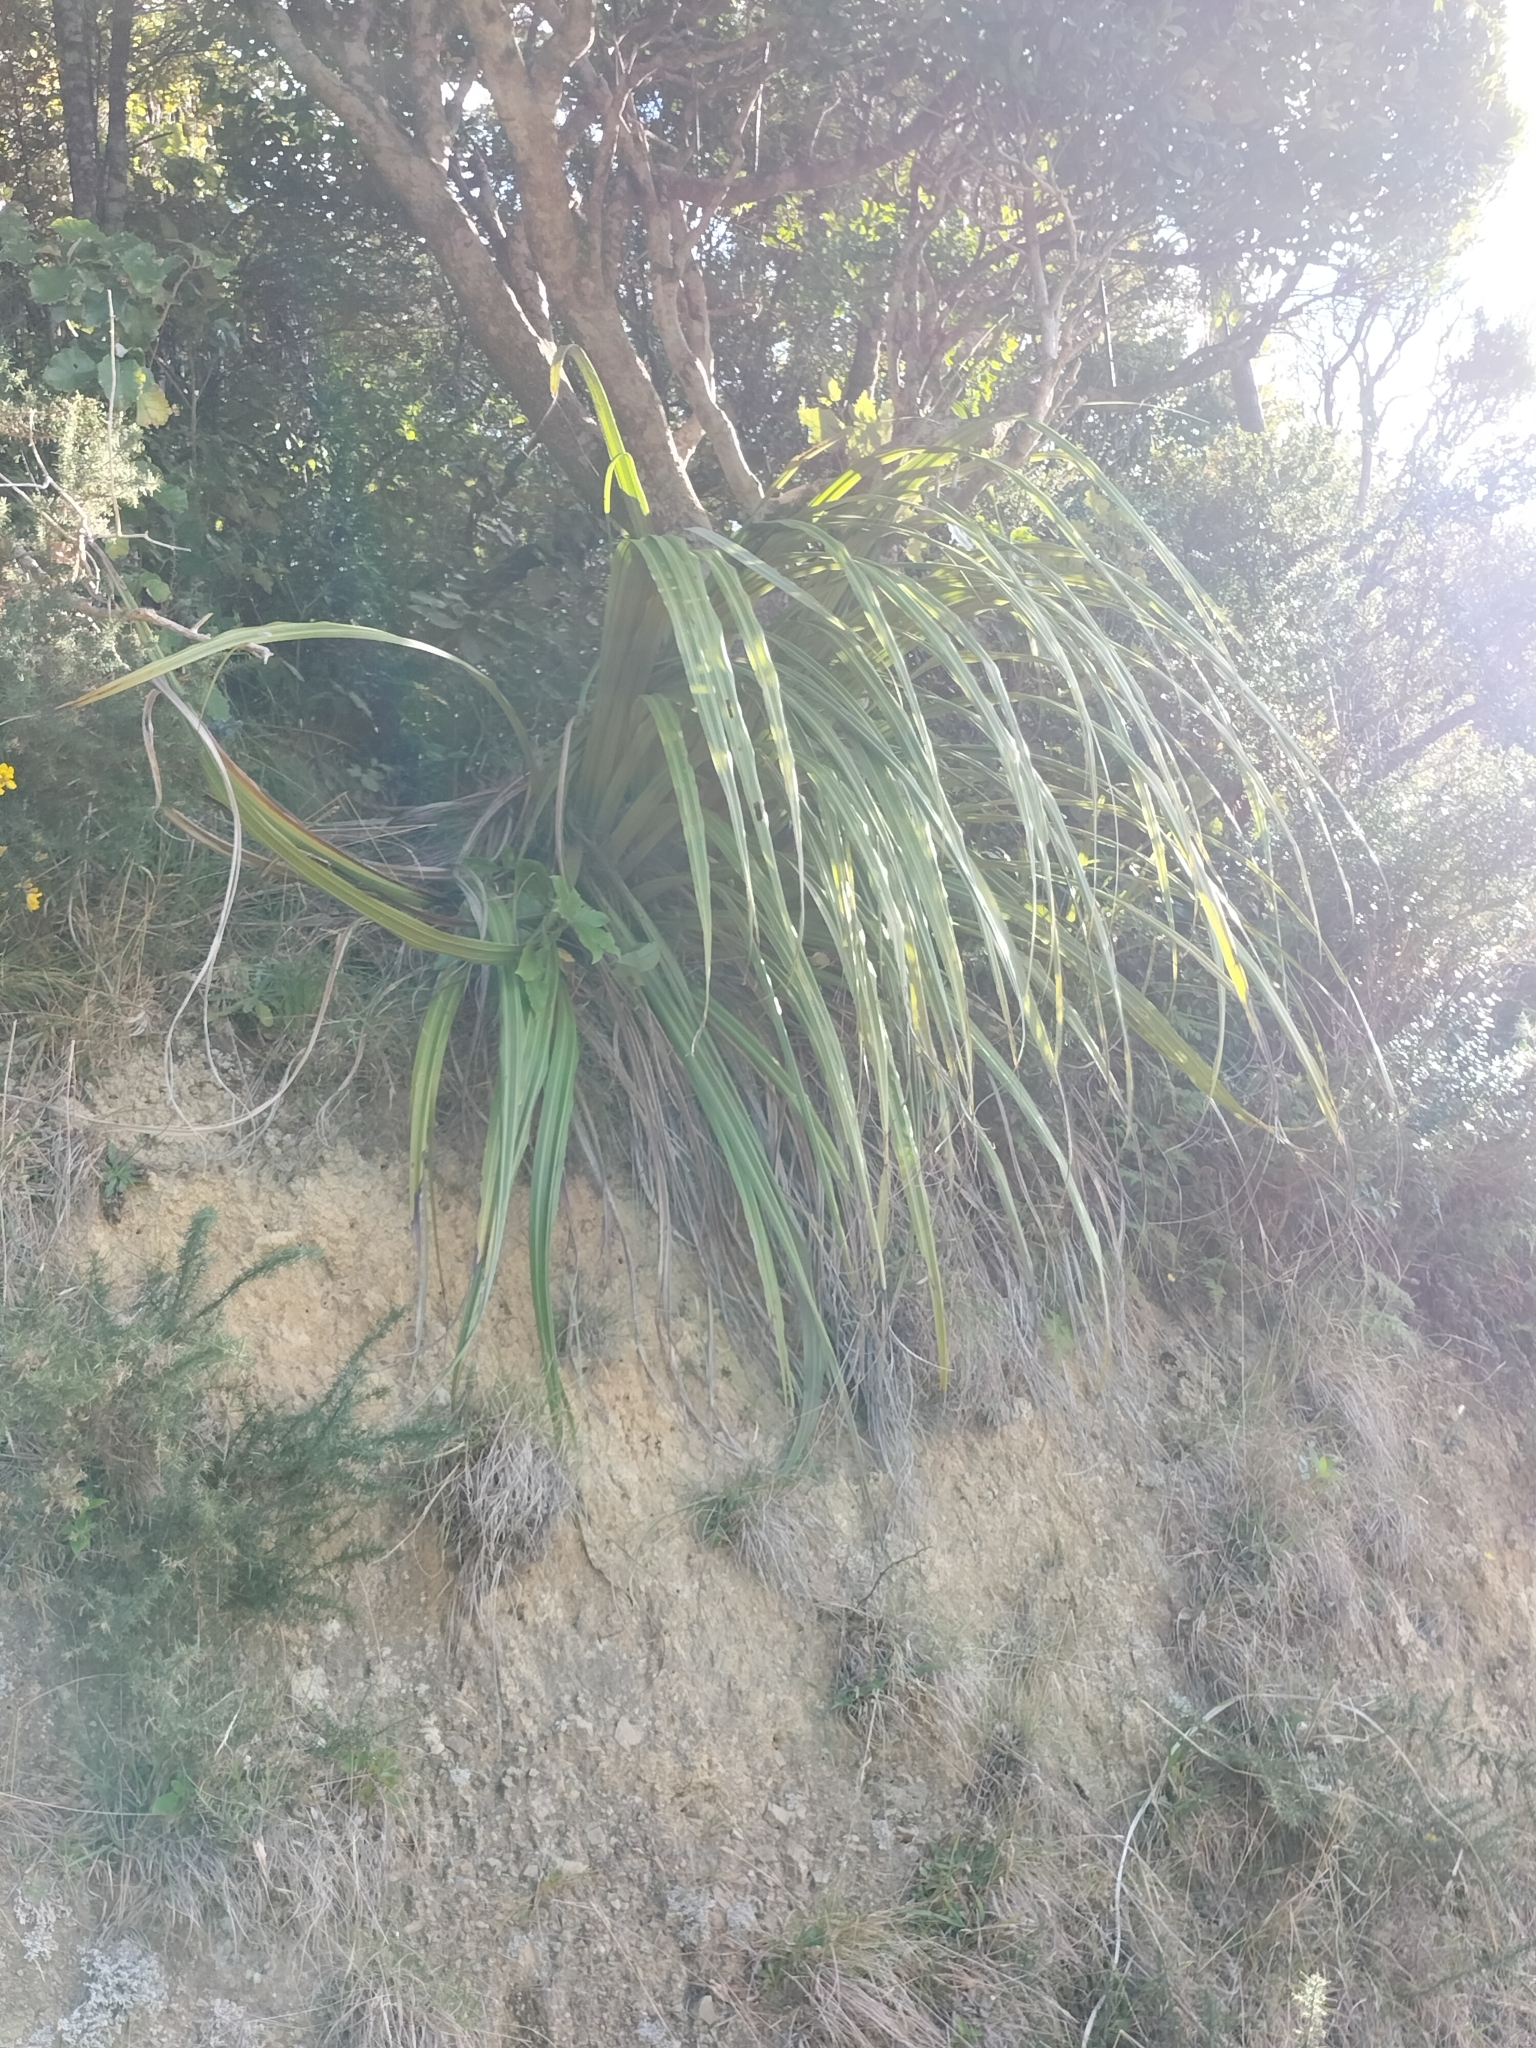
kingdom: Plantae
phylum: Tracheophyta
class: Liliopsida
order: Asparagales
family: Asteliaceae
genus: Astelia
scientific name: Astelia fragrans
